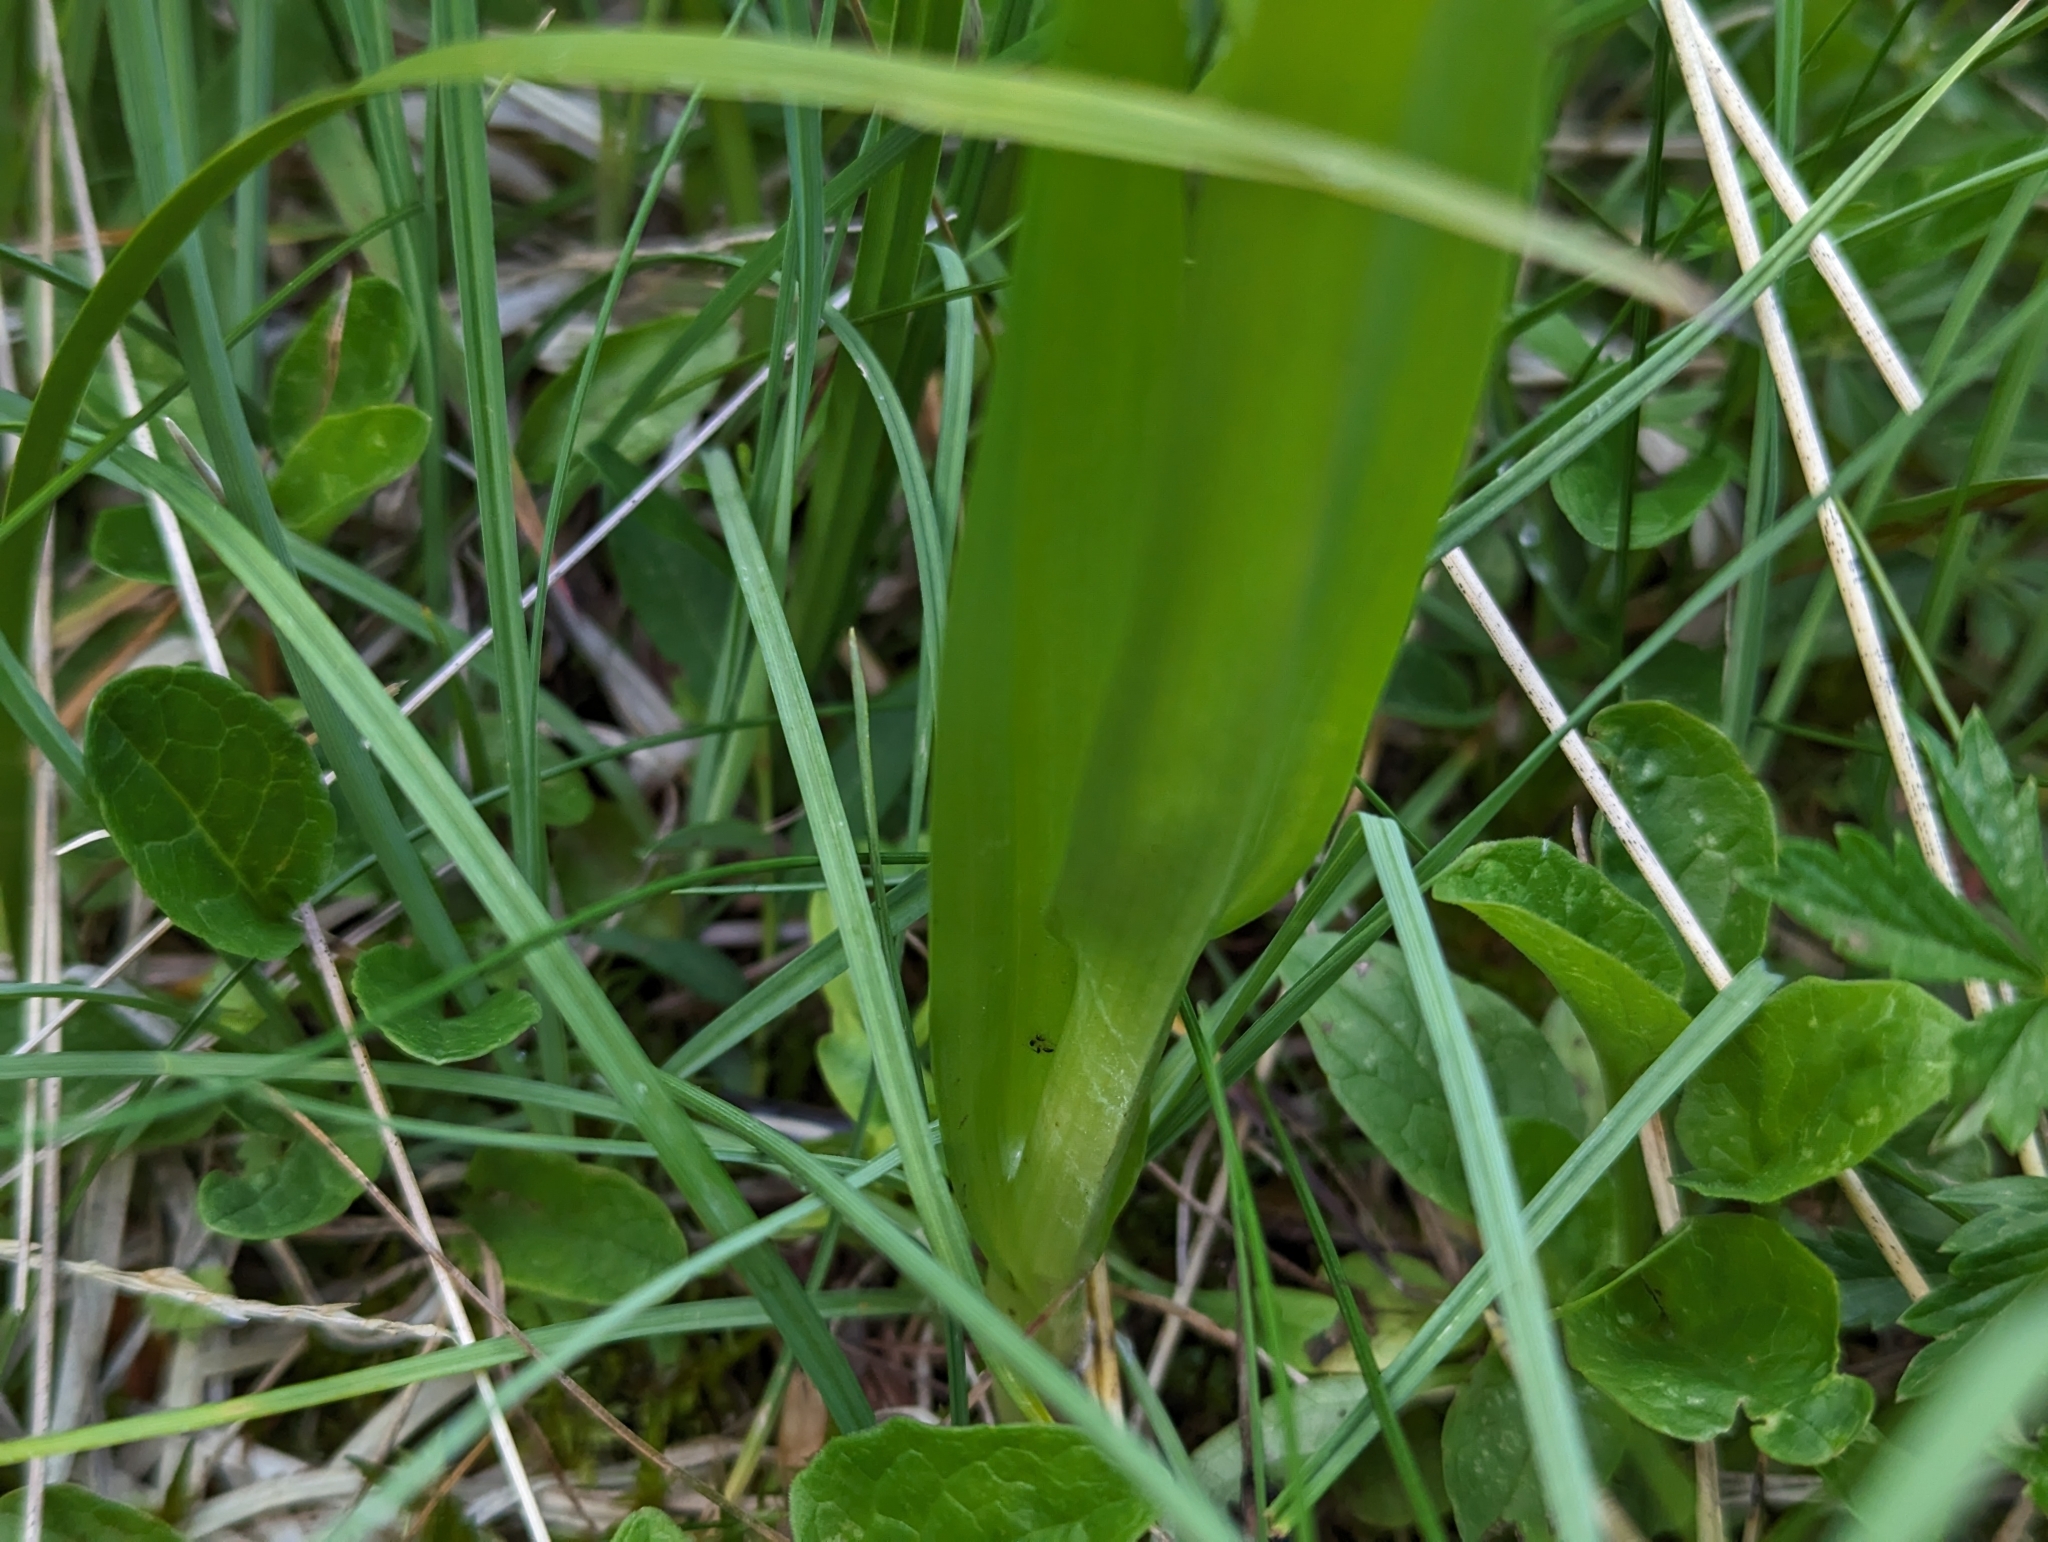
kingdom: Plantae
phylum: Tracheophyta
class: Liliopsida
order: Asparagales
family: Orchidaceae
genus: Dactylorhiza
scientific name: Dactylorhiza incarnata
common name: Early marsh-orchid
